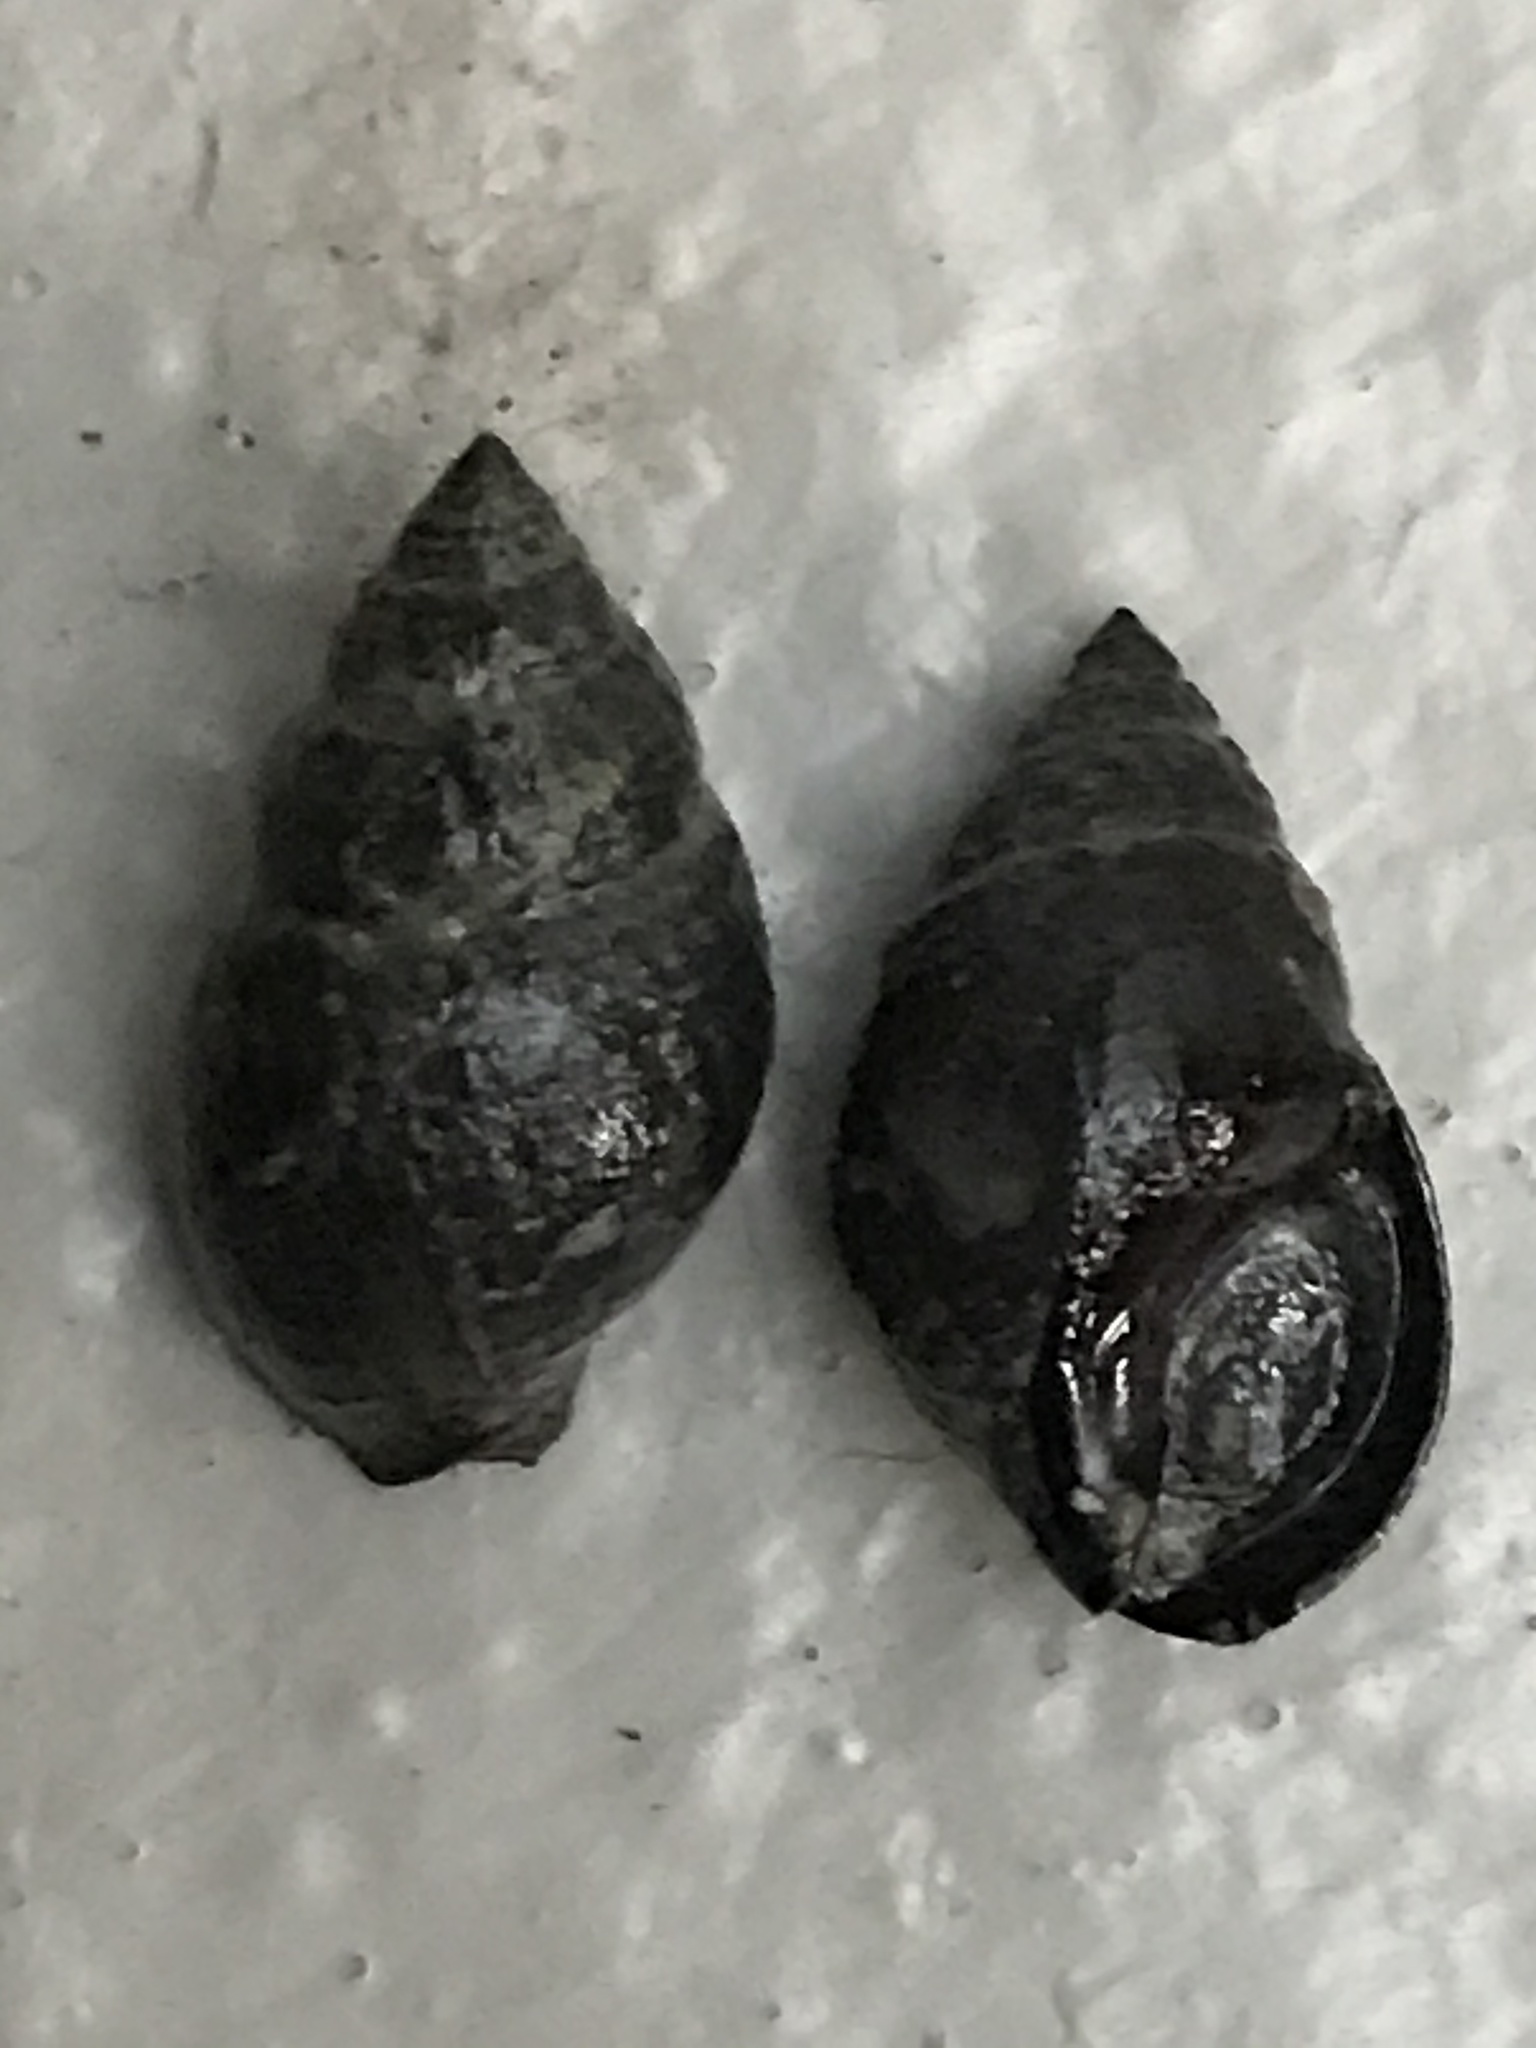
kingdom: Animalia
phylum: Mollusca
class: Gastropoda
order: Neogastropoda
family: Nassariidae
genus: Ilyanassa
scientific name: Ilyanassa obsoleta
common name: Eastern mudsnail
